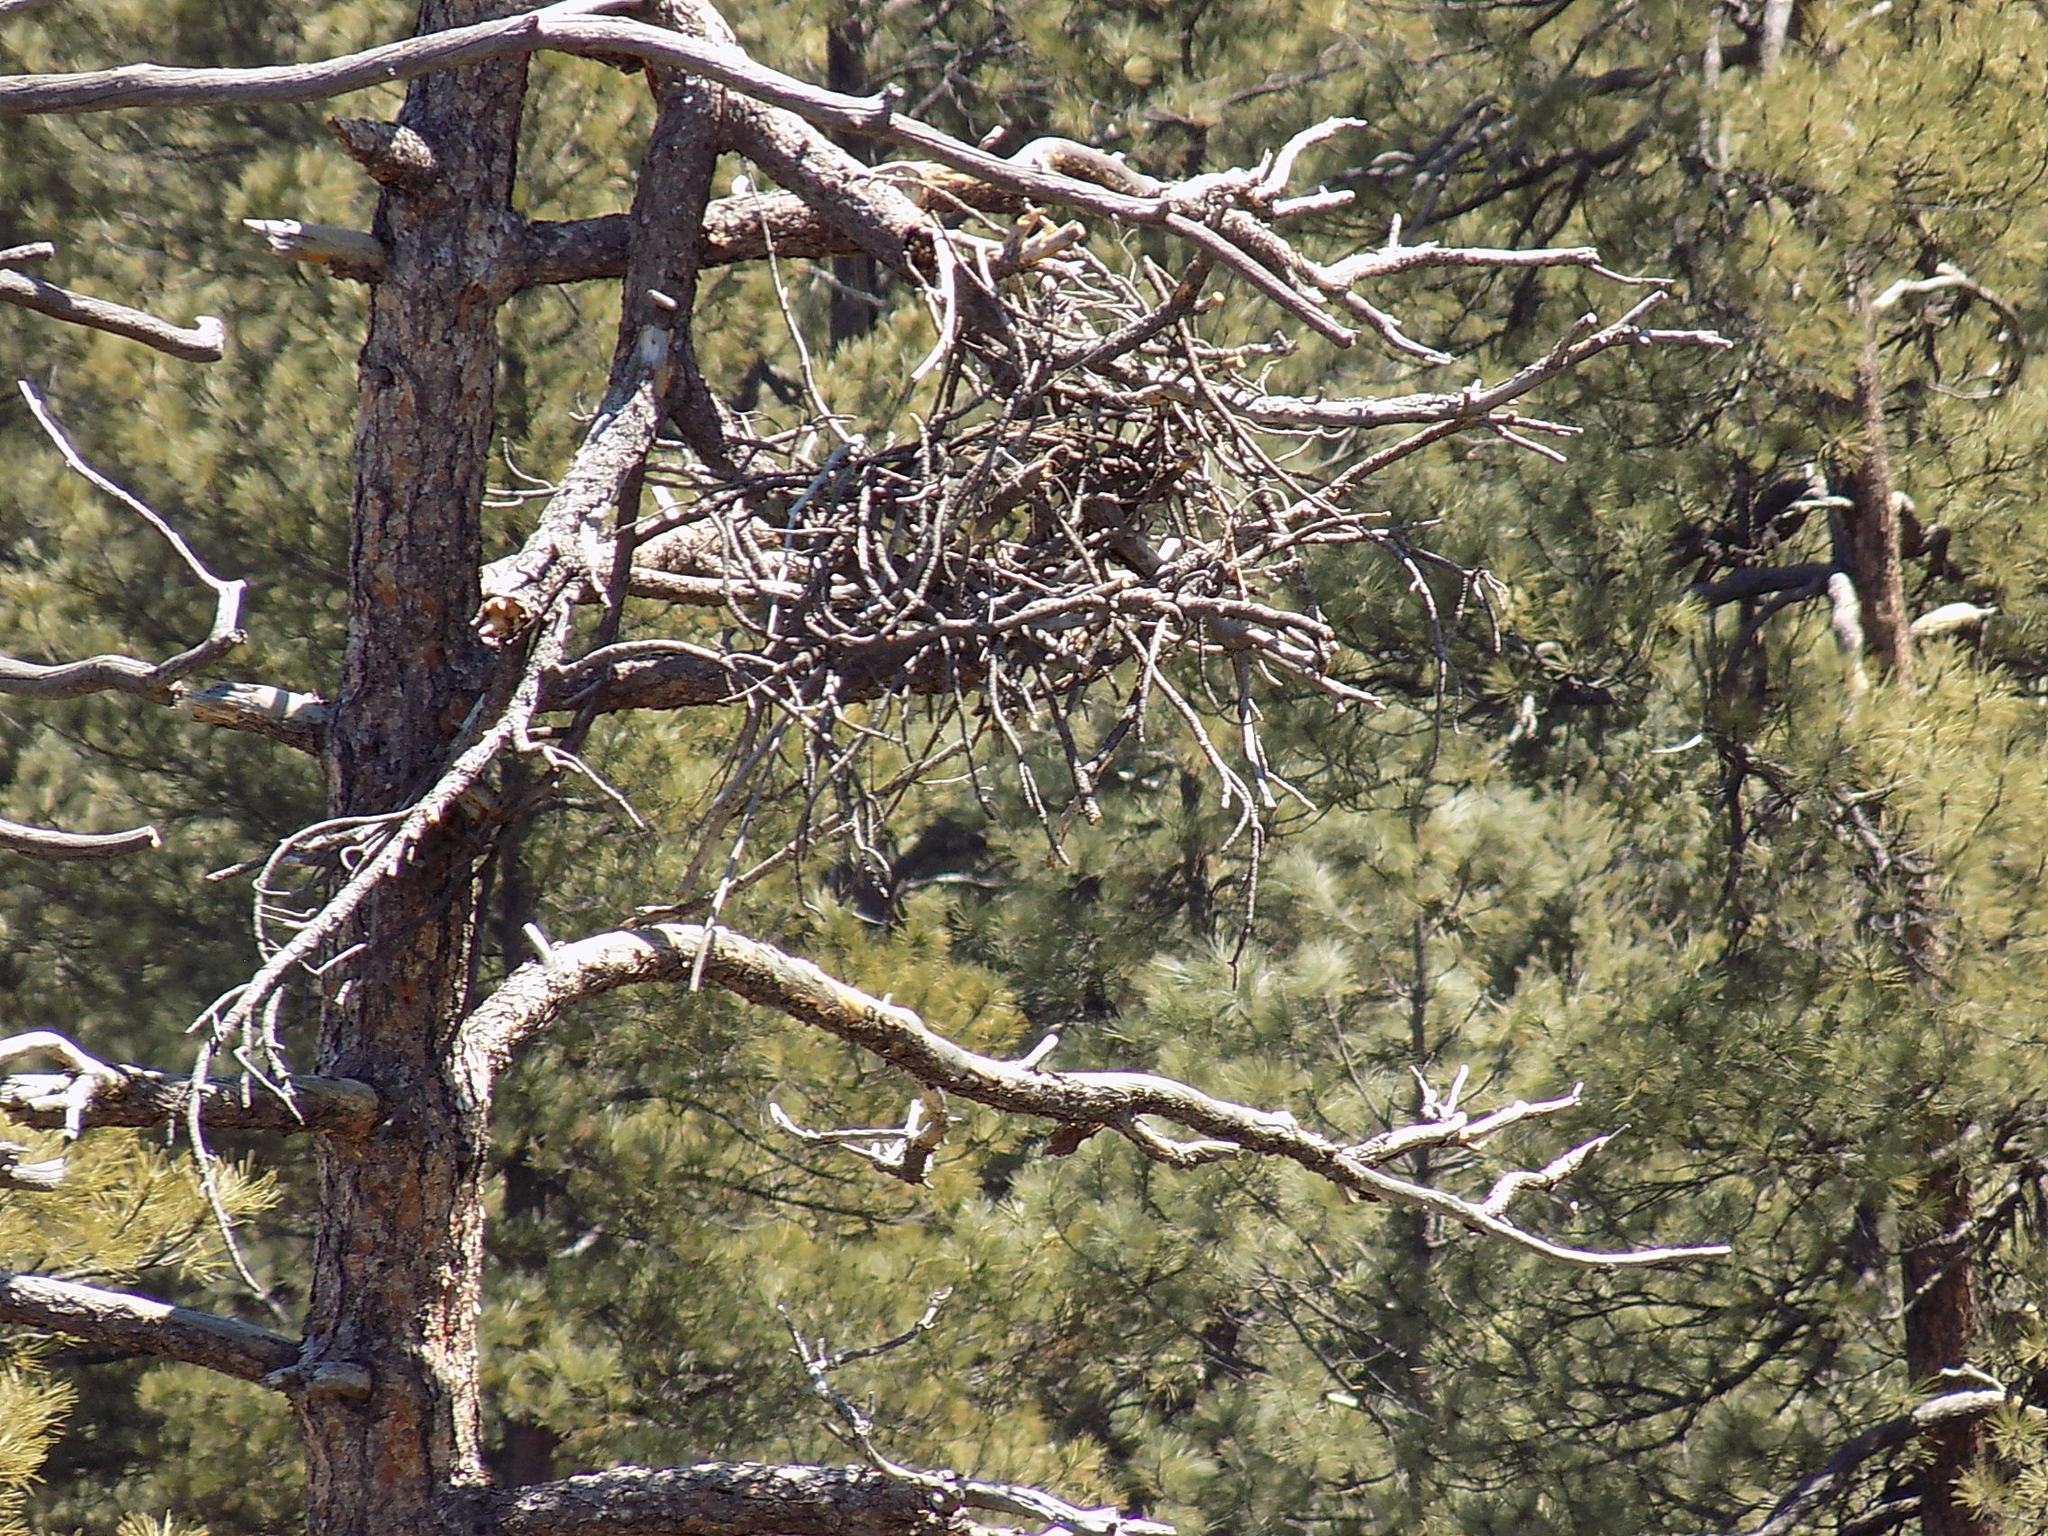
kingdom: Animalia
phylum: Chordata
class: Aves
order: Accipitriformes
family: Pandionidae
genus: Pandion
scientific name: Pandion haliaetus
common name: Osprey
